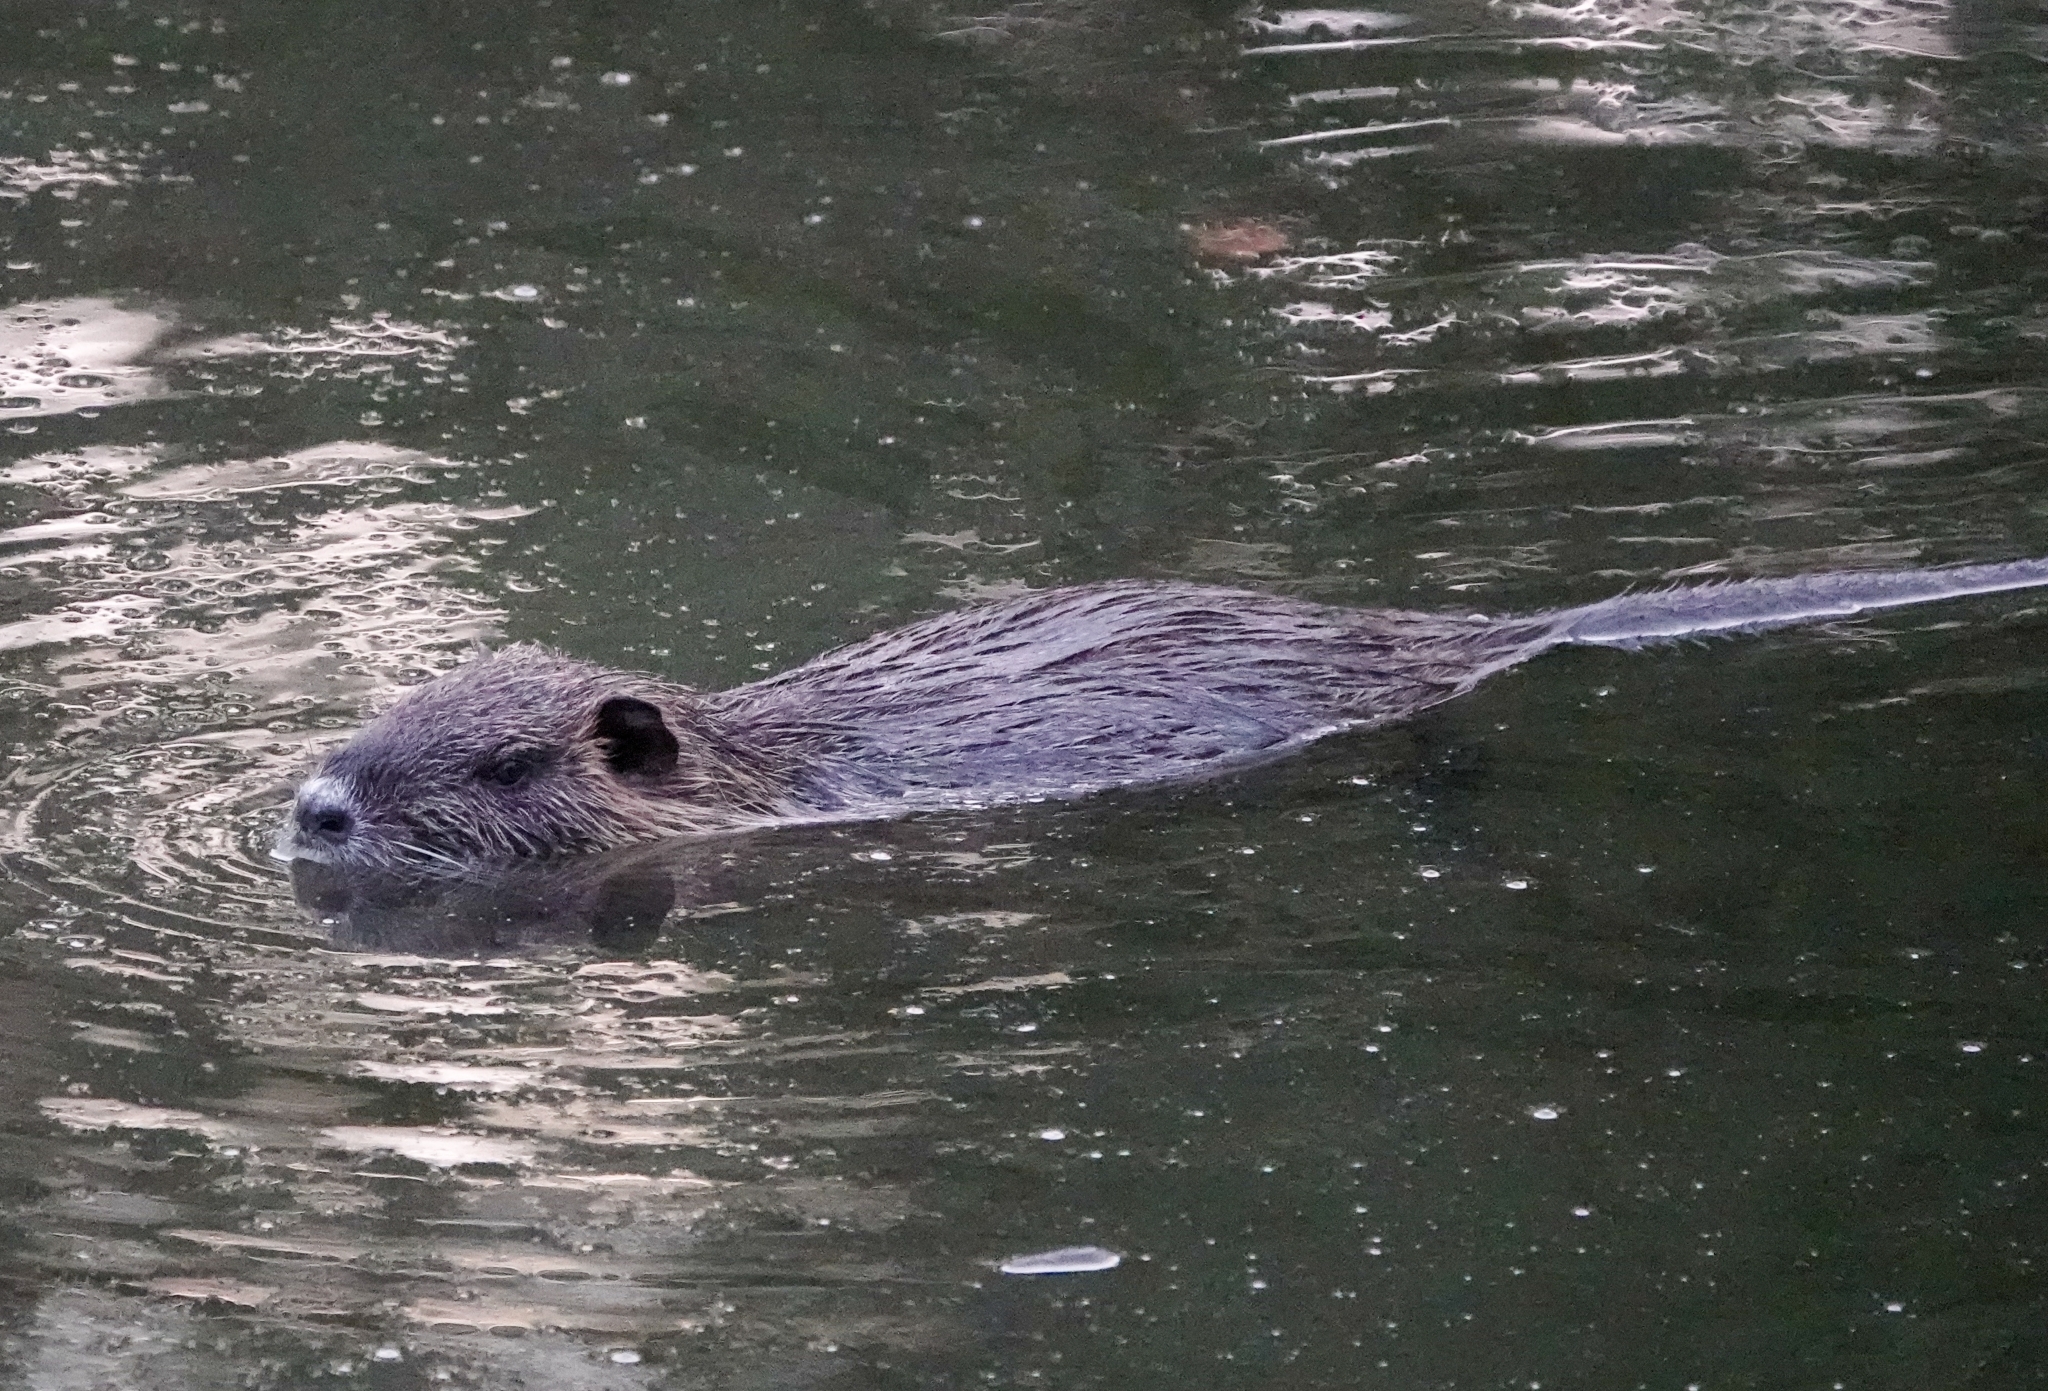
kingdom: Animalia
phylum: Chordata
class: Mammalia
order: Rodentia
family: Myocastoridae
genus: Myocastor
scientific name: Myocastor coypus
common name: Coypu
